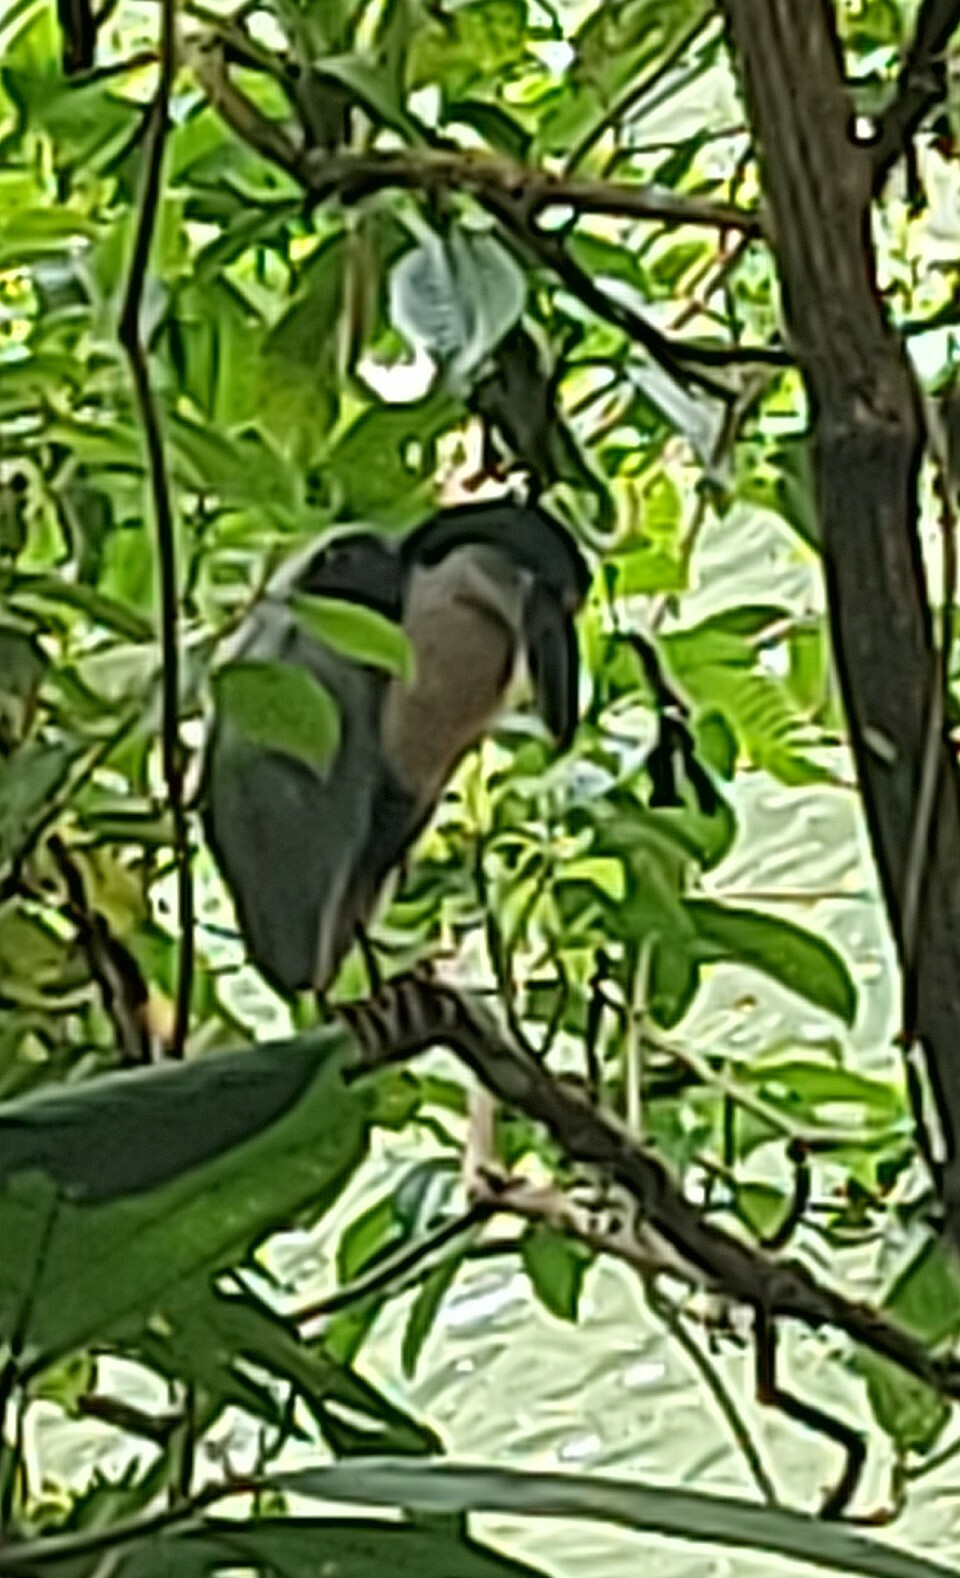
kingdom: Animalia
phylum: Chordata
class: Aves
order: Pelecaniformes
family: Ardeidae
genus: Cochlearius
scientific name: Cochlearius cochlearius
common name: Boat-billed heron
